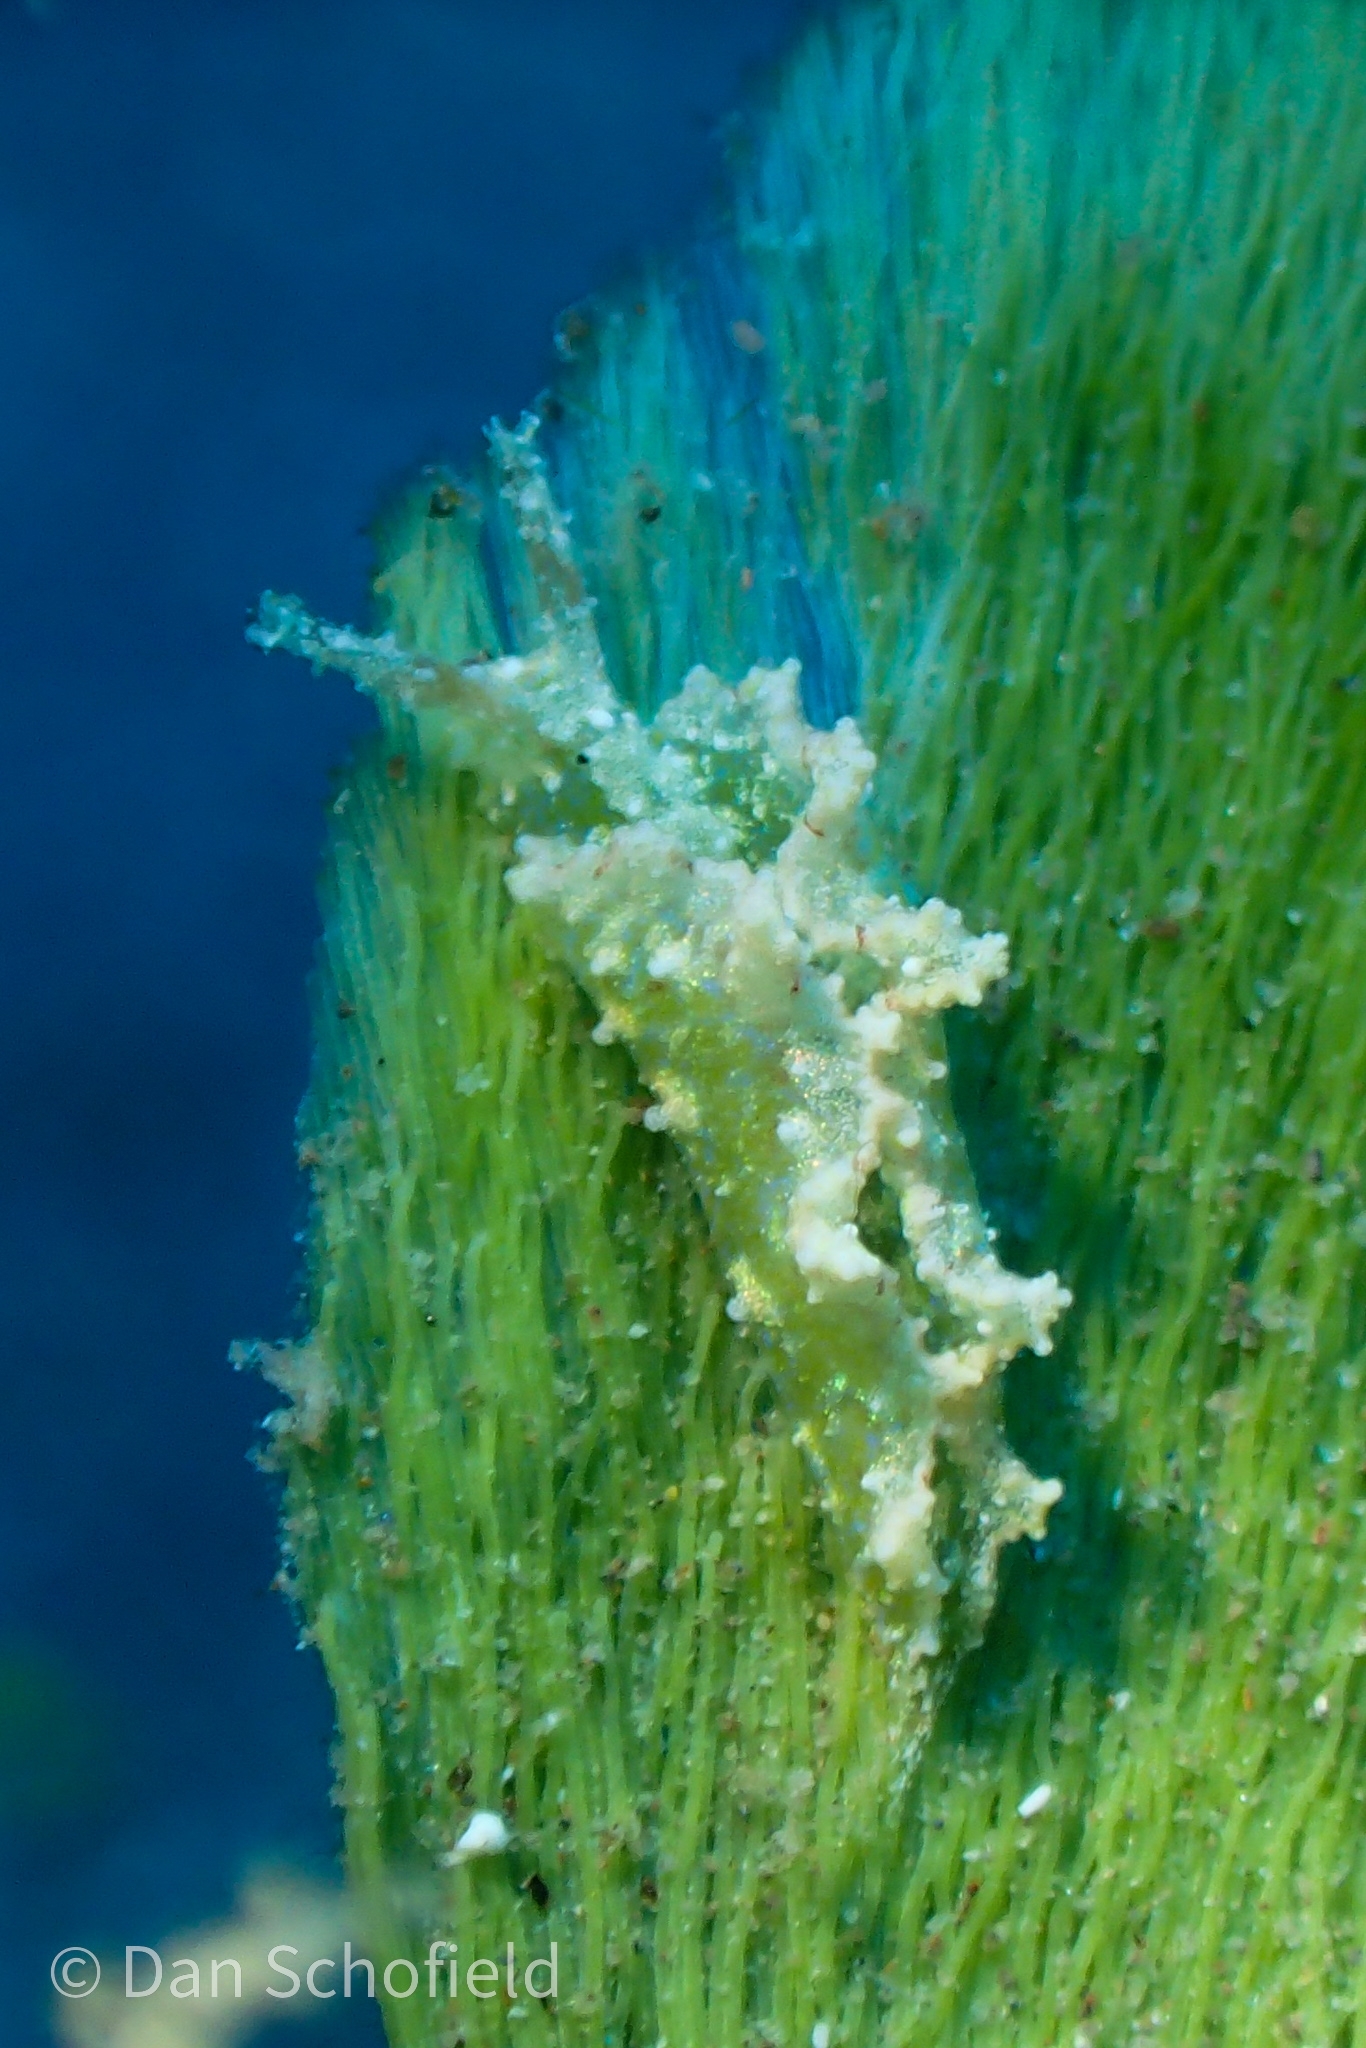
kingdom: Animalia
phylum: Mollusca
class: Gastropoda
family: Plakobranchidae
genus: Elysia
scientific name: Elysia papillosa
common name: Papillose elysia
